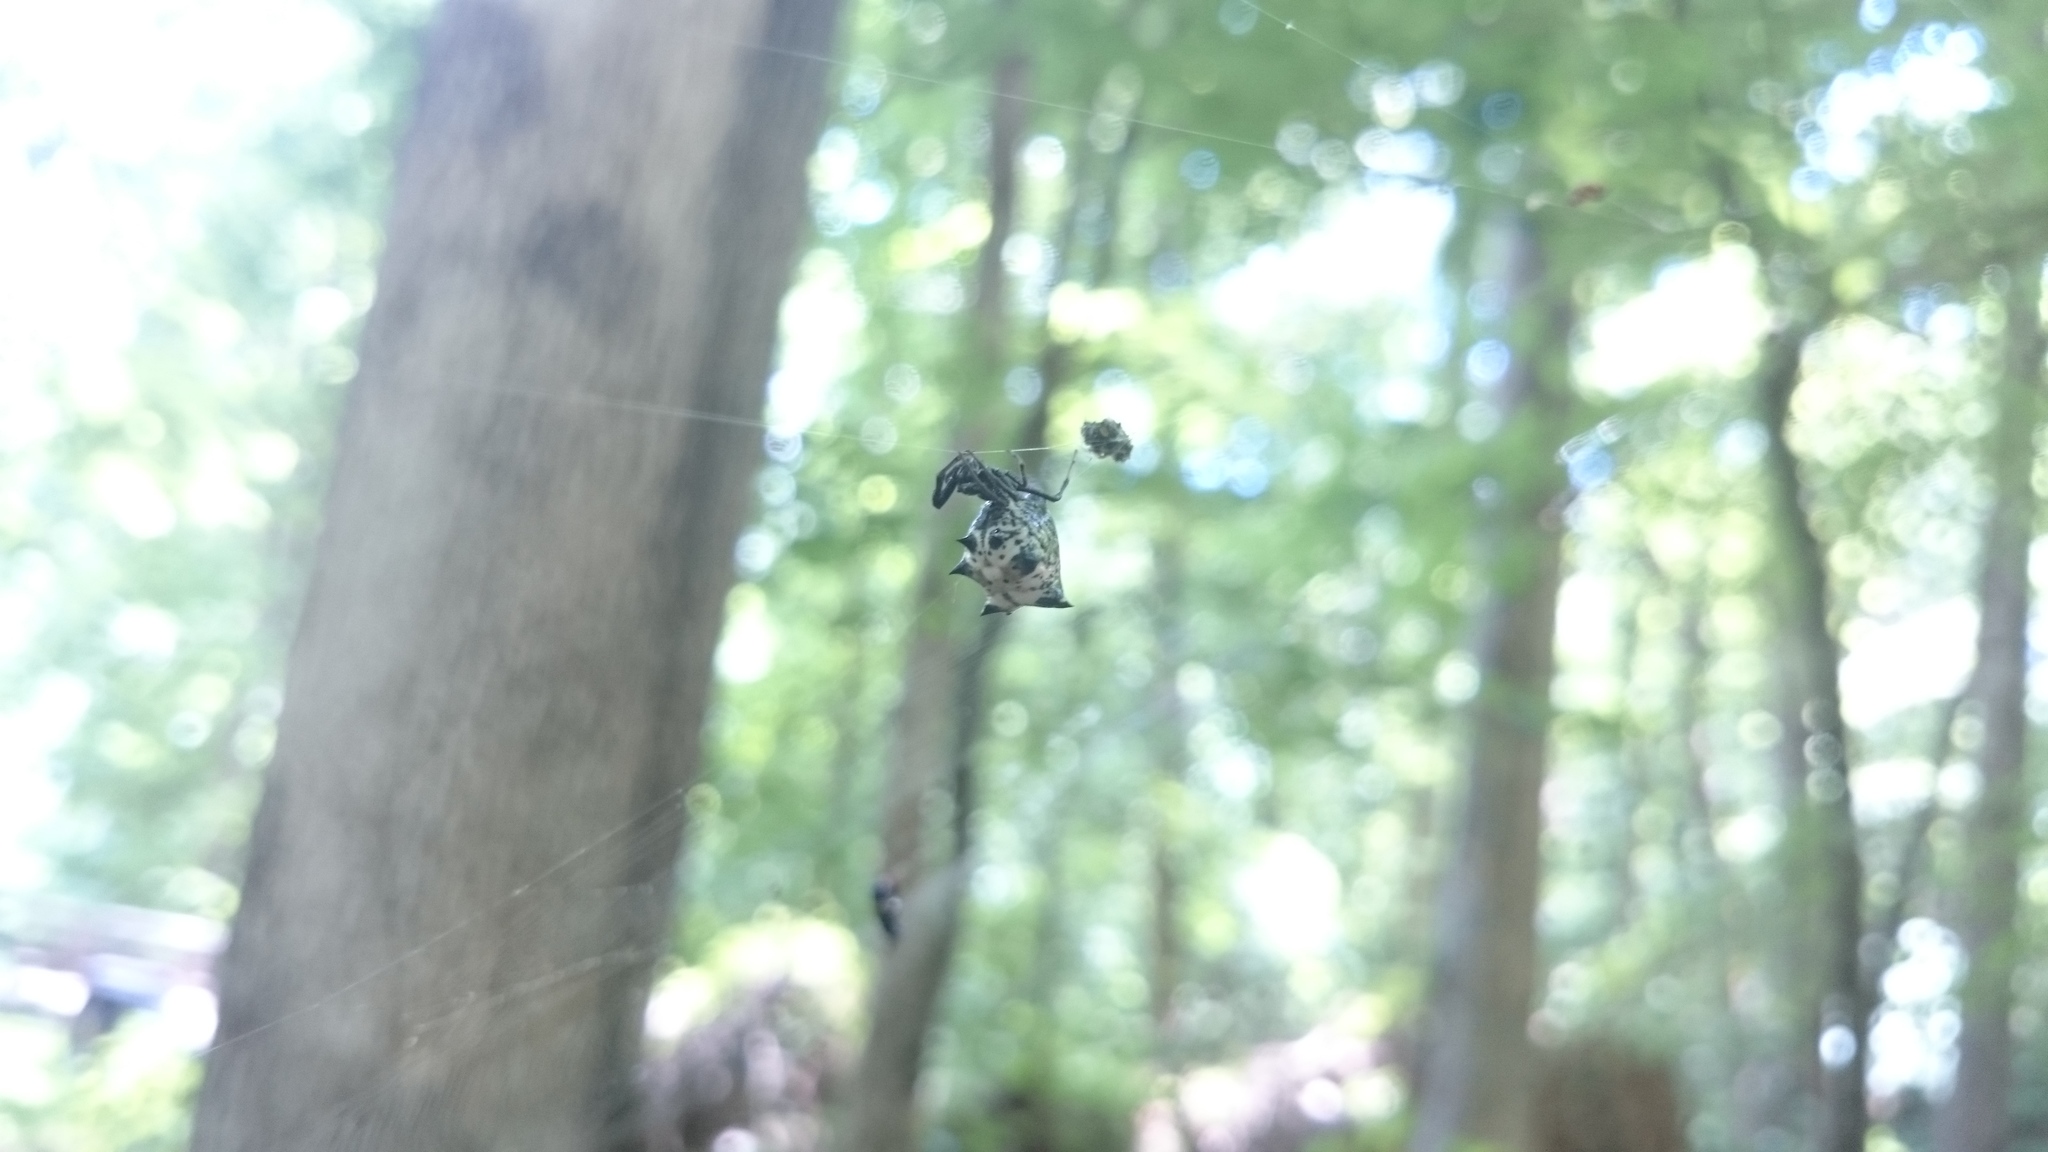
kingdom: Animalia
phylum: Arthropoda
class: Arachnida
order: Araneae
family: Araneidae
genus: Micrathena
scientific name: Micrathena gracilis
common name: Orb weavers
